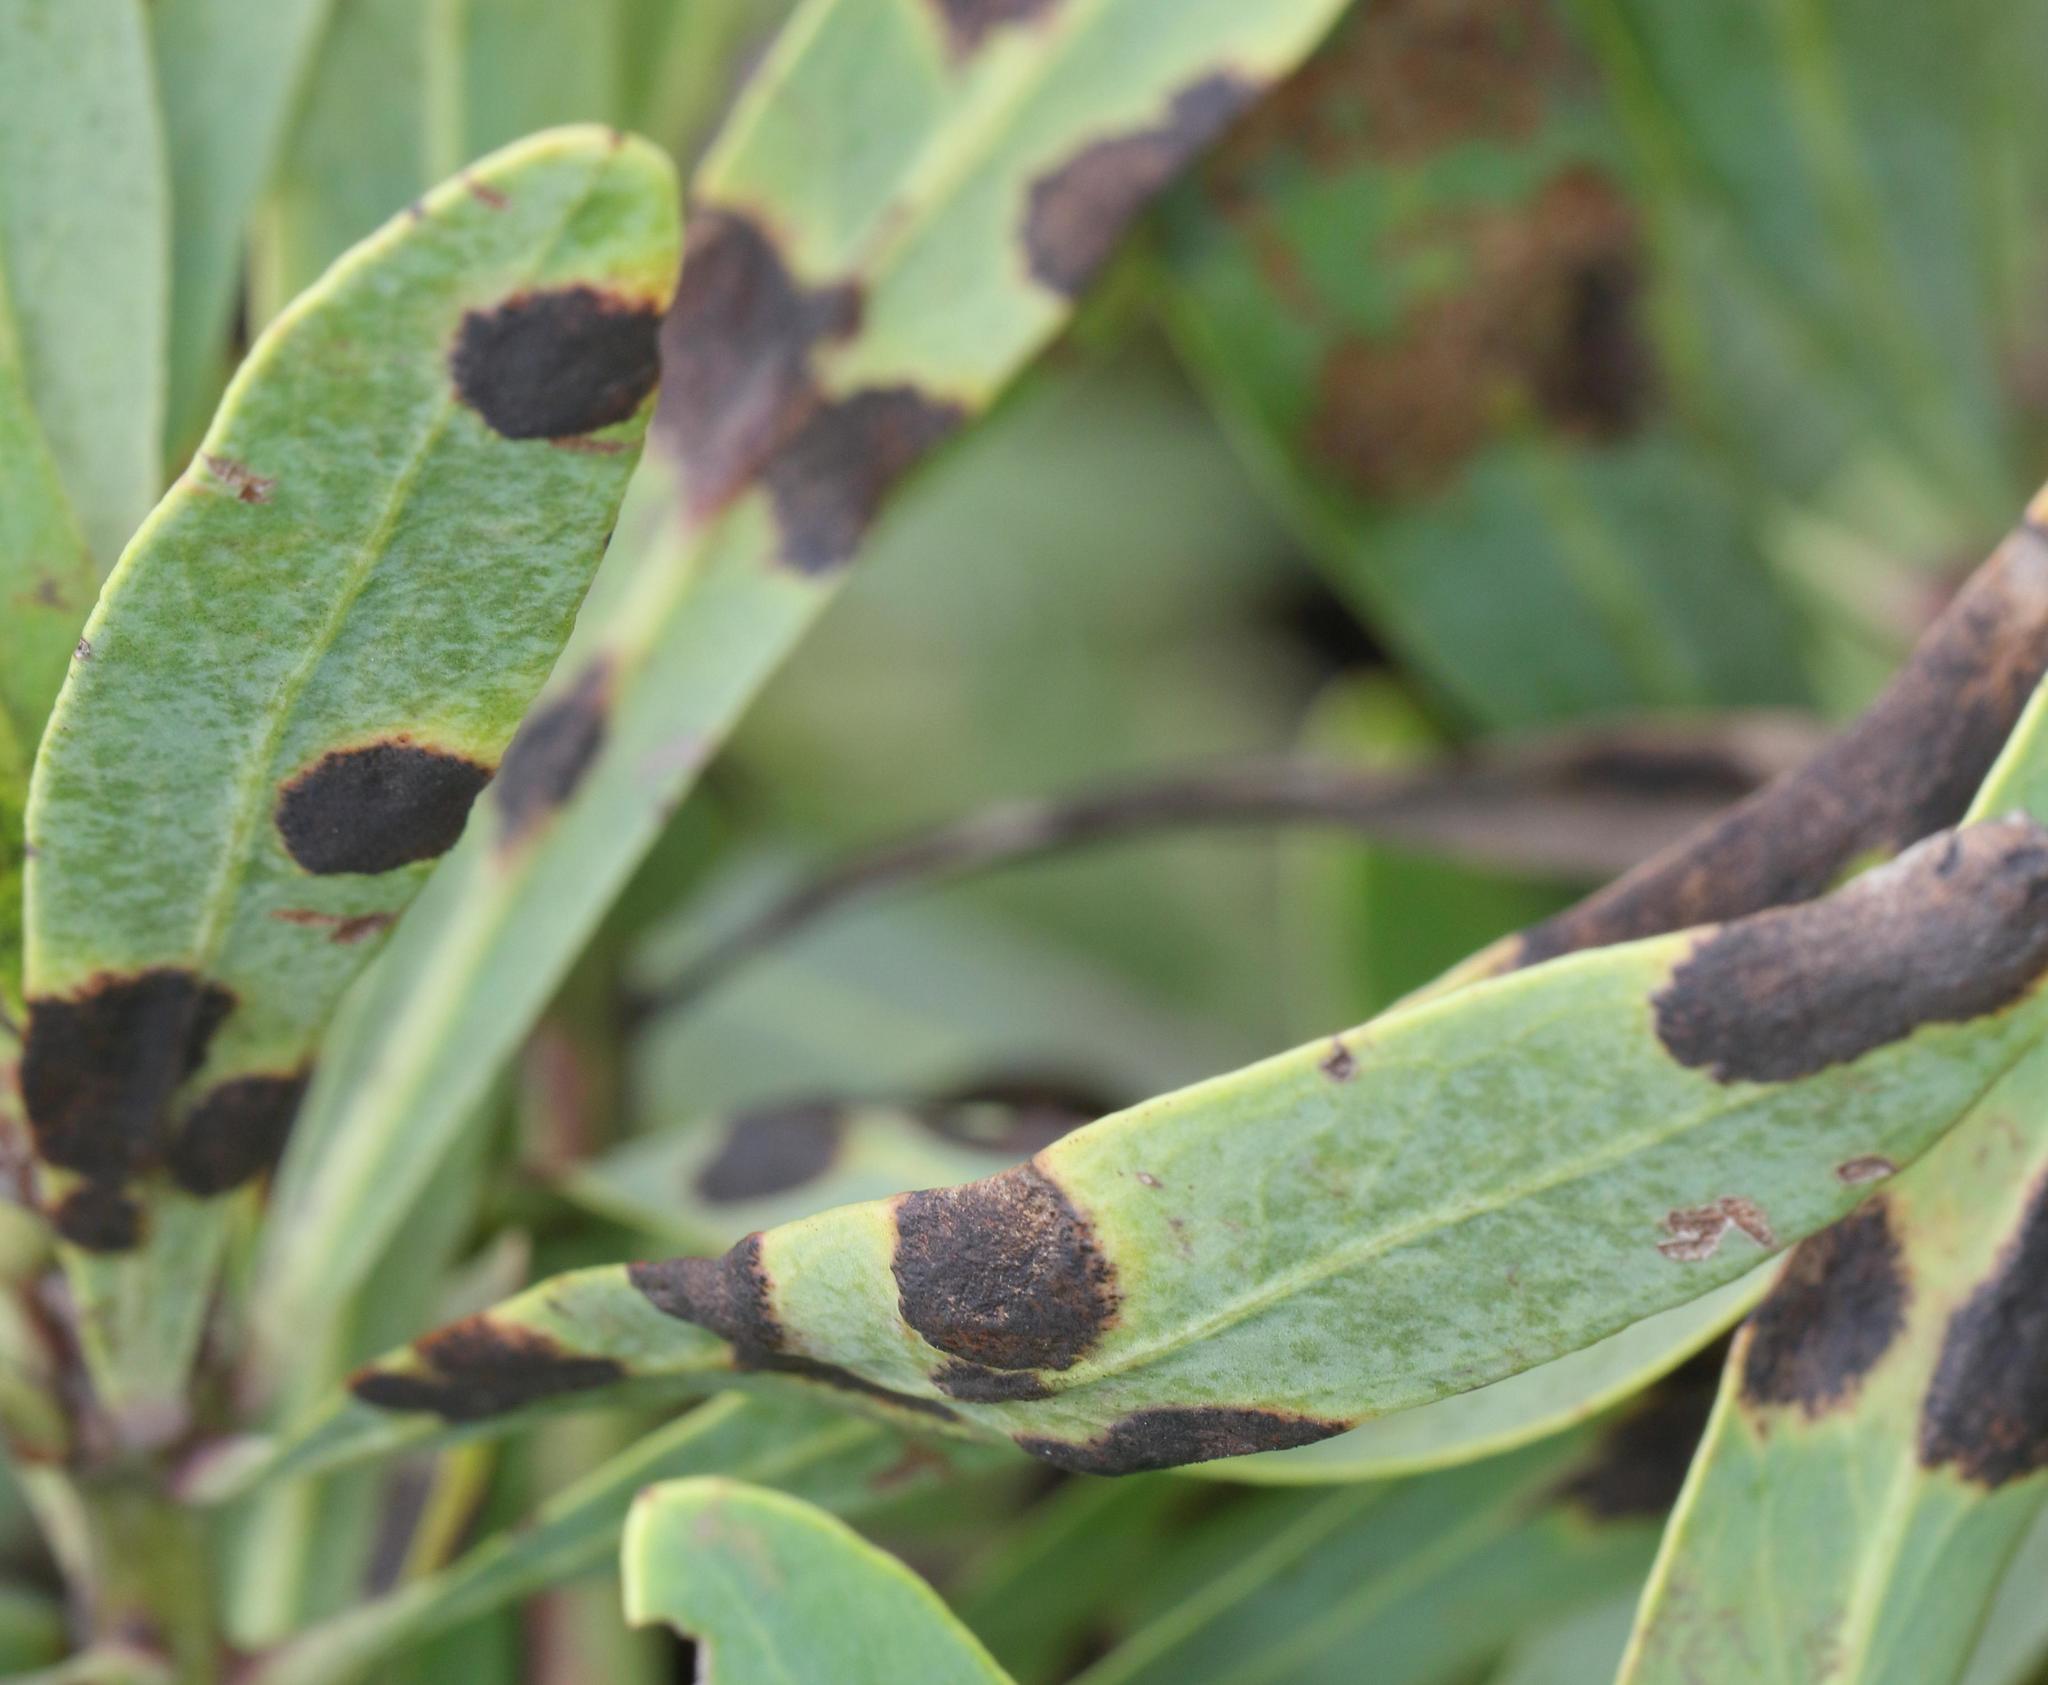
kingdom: Plantae
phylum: Tracheophyta
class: Magnoliopsida
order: Proteales
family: Proteaceae
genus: Protea
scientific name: Protea caffra
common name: Common sugarbush
